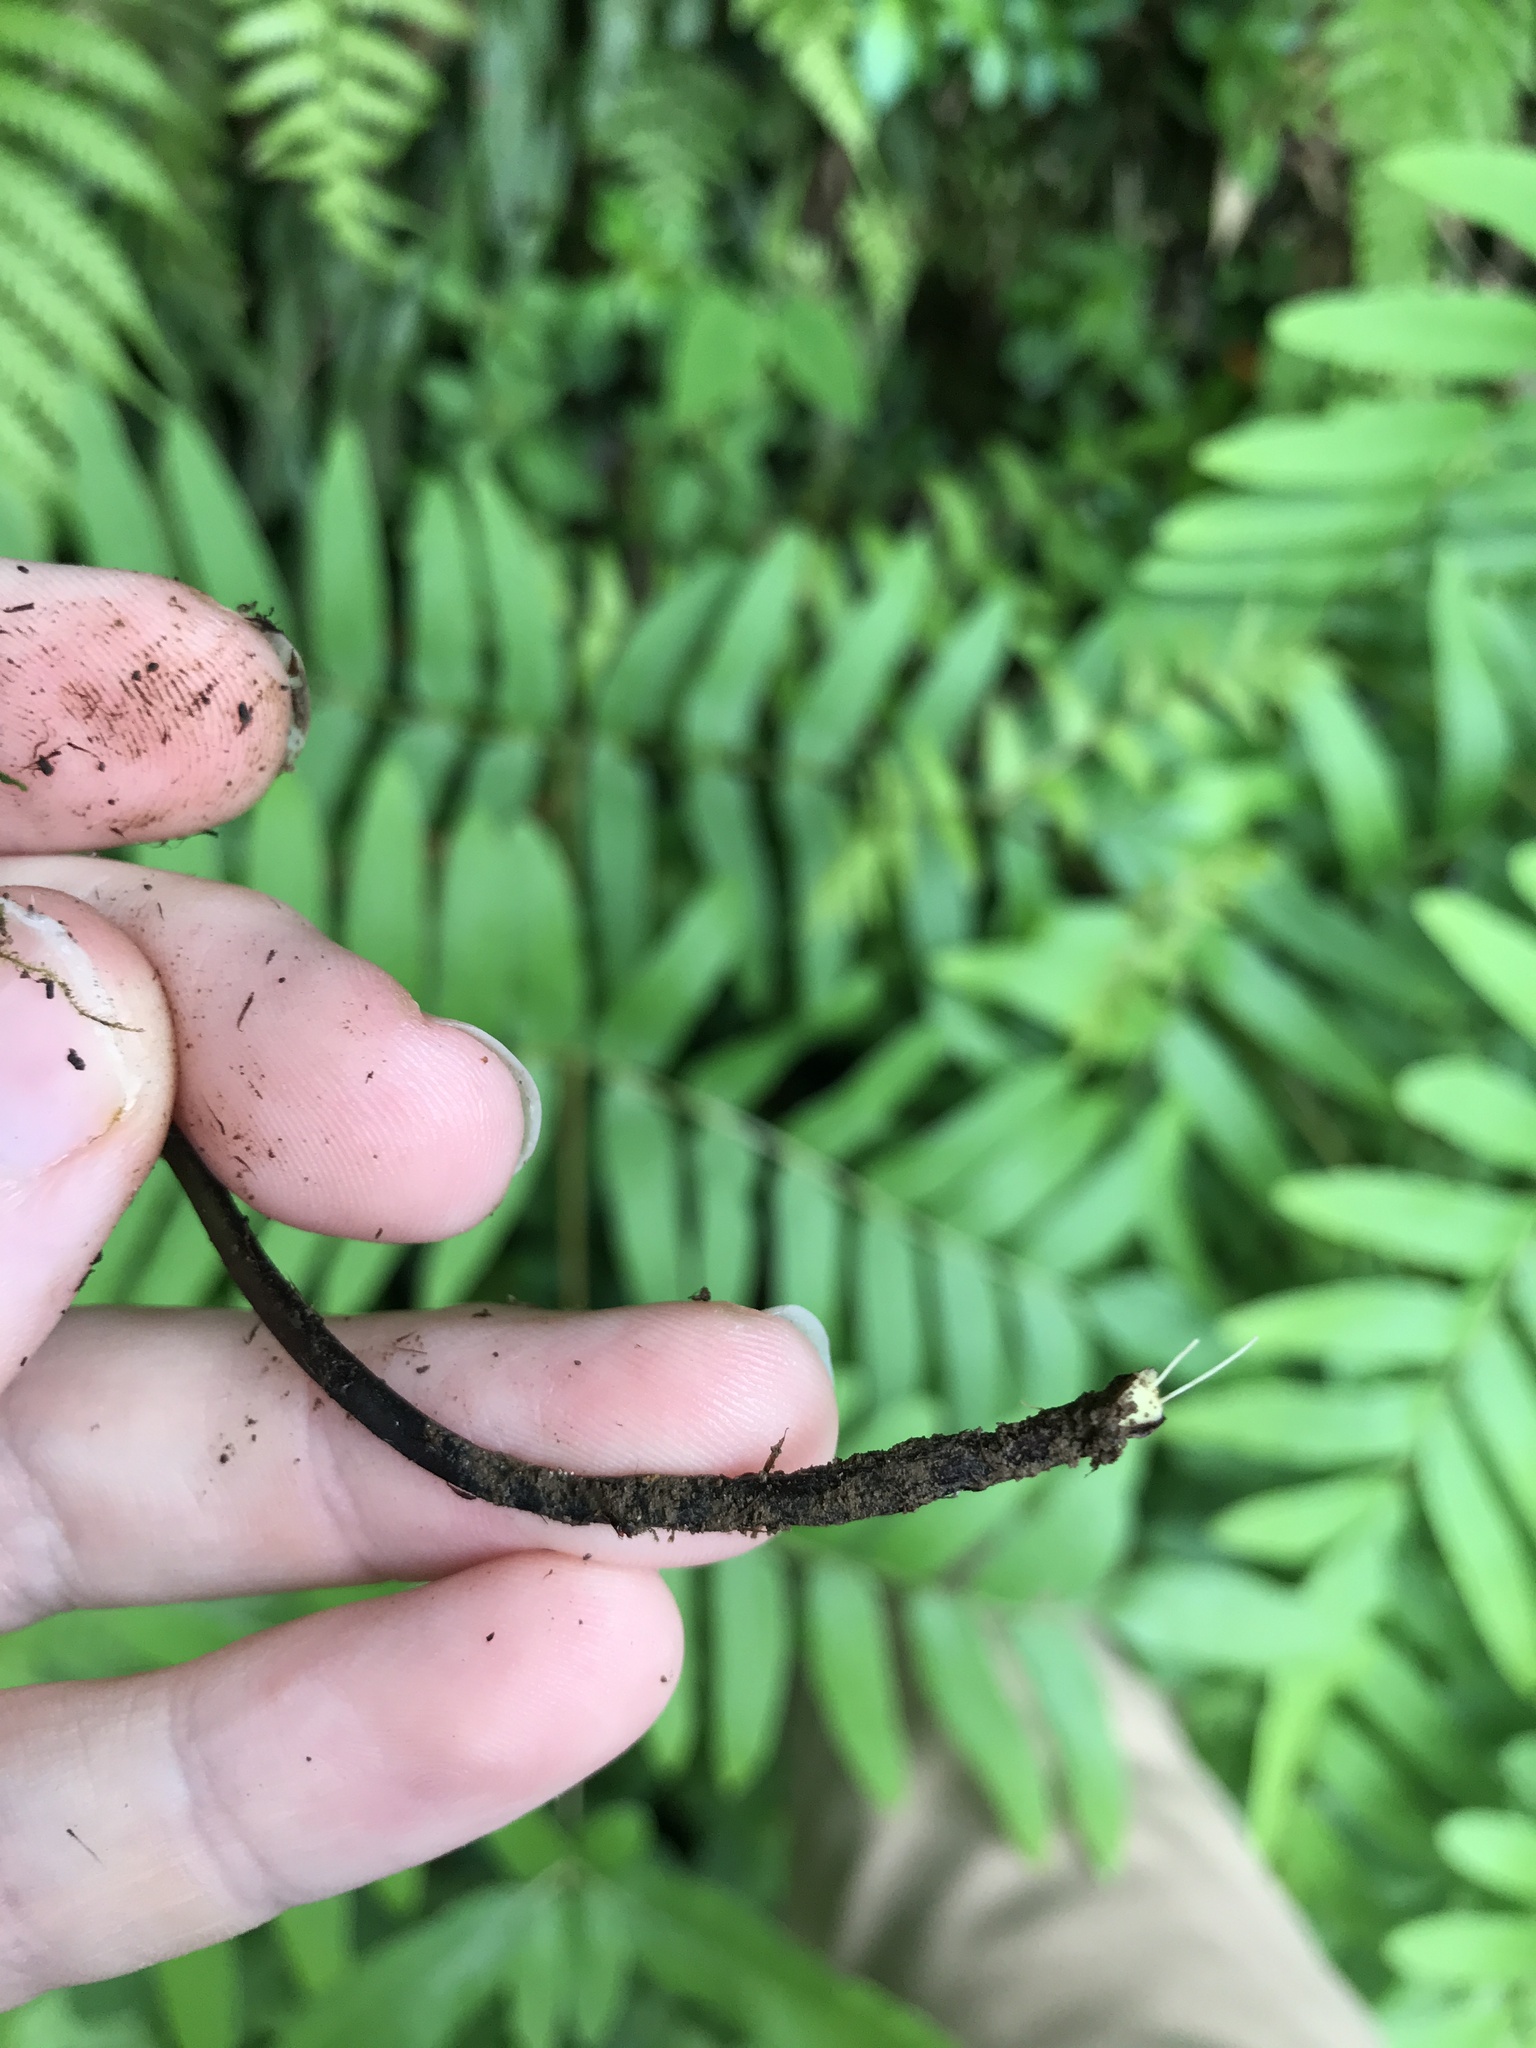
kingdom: Plantae
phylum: Tracheophyta
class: Polypodiopsida
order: Polypodiales
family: Athyriaceae
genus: Deparia
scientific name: Deparia lancea
